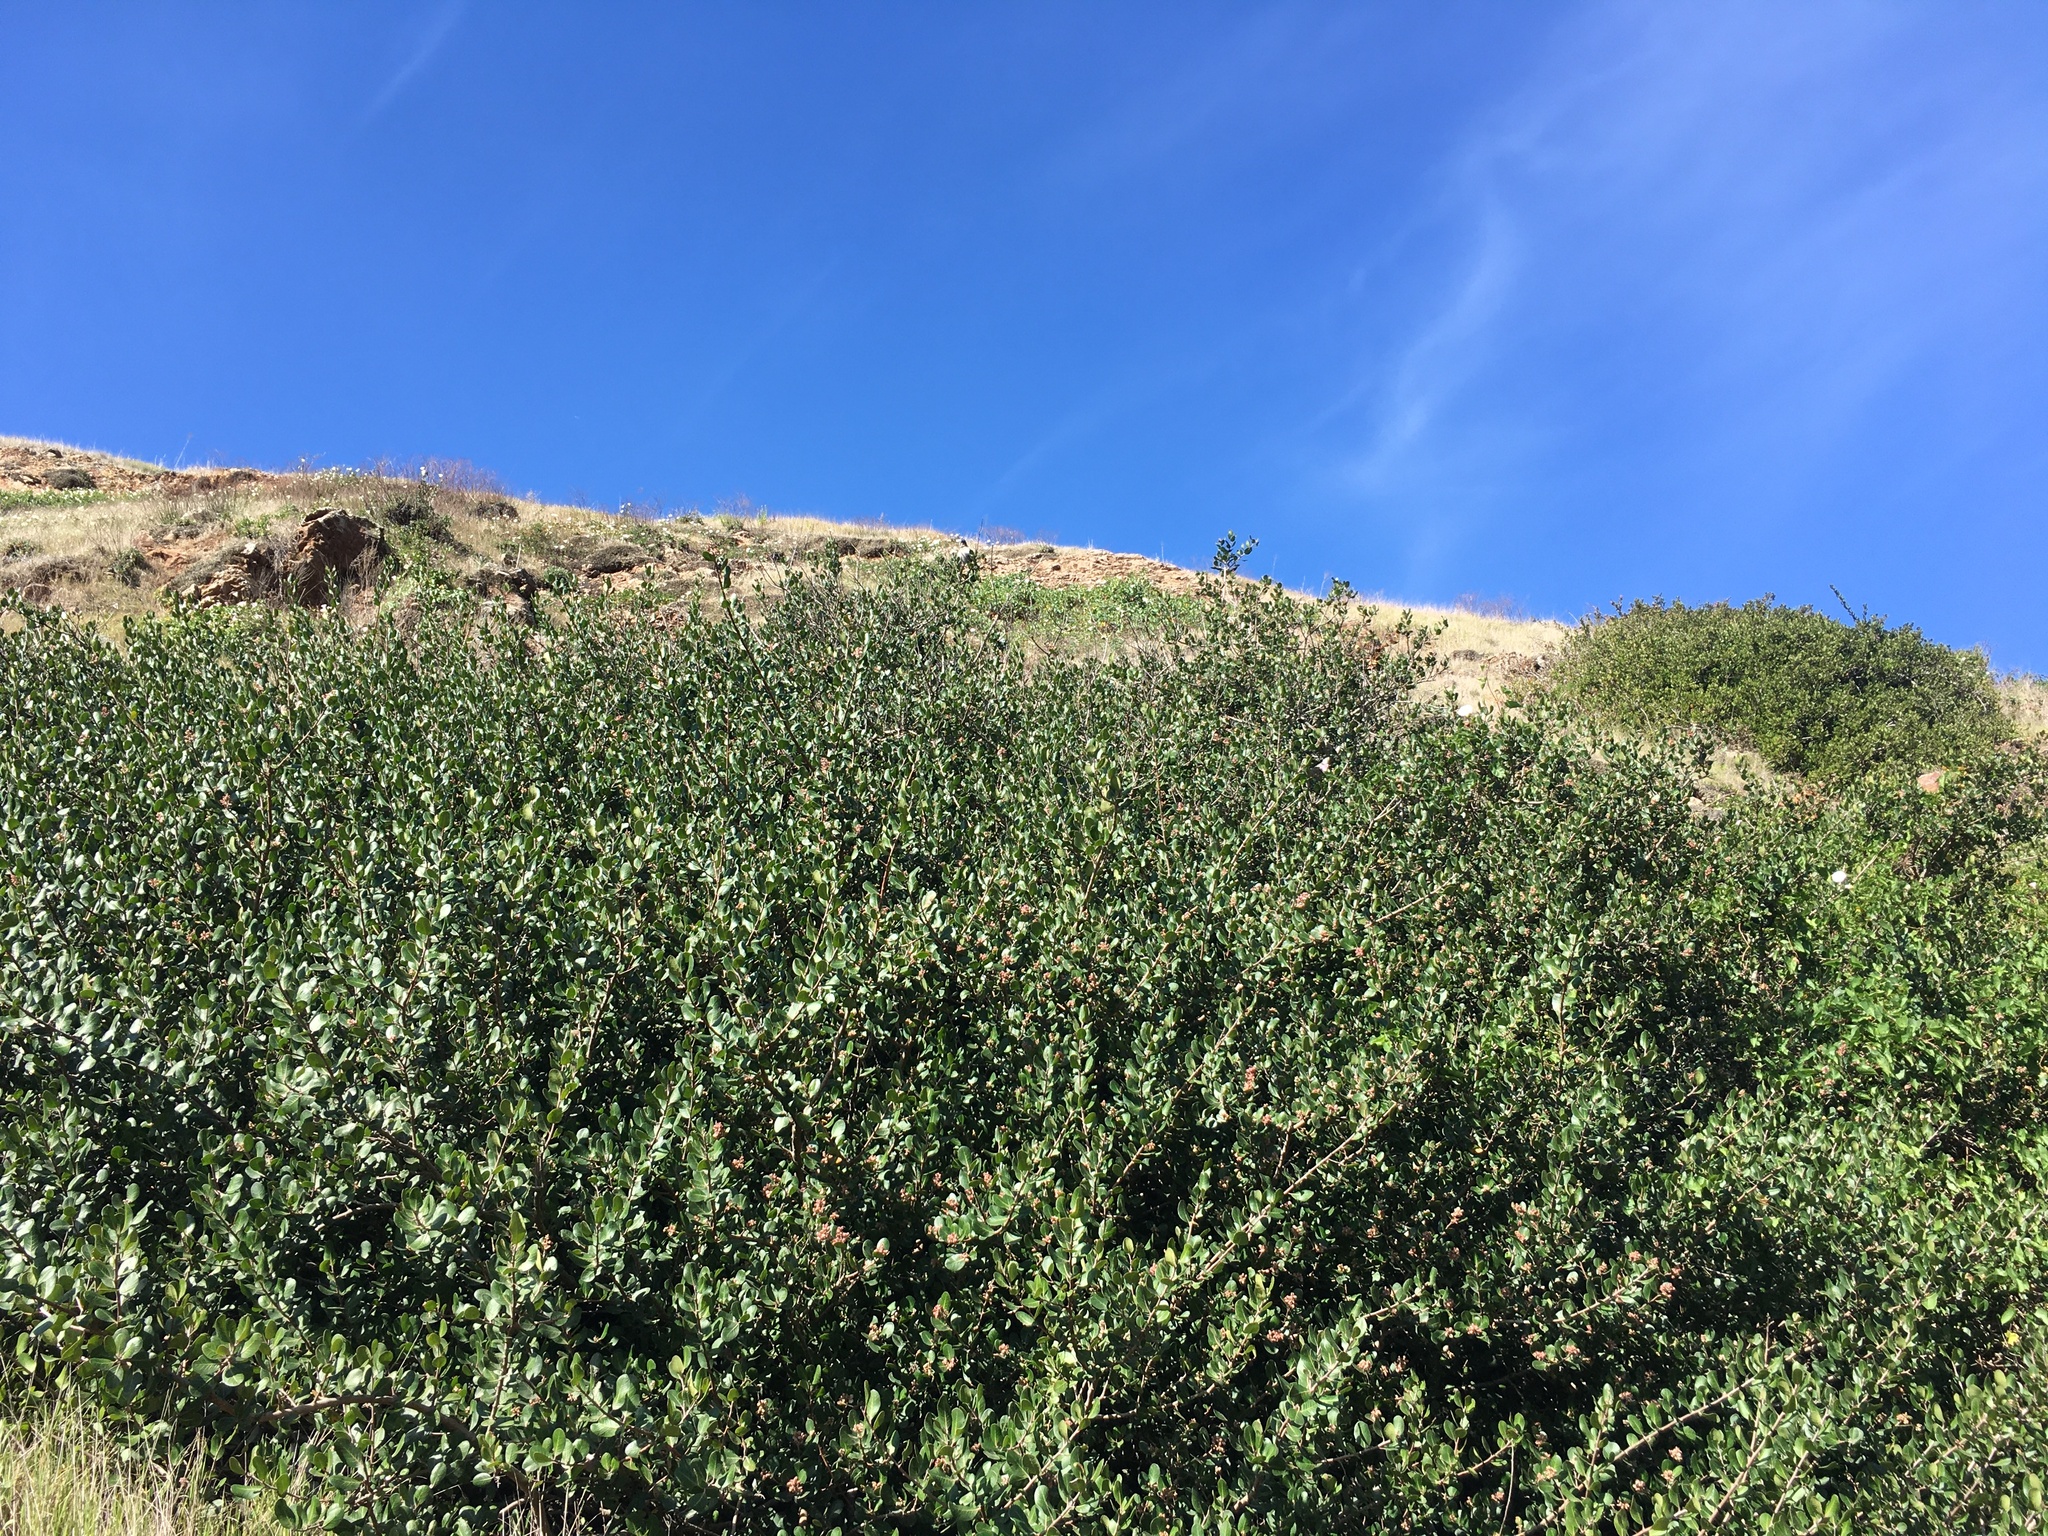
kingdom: Plantae
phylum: Tracheophyta
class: Magnoliopsida
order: Sapindales
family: Anacardiaceae
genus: Rhus
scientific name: Rhus integrifolia
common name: Lemonade sumac
